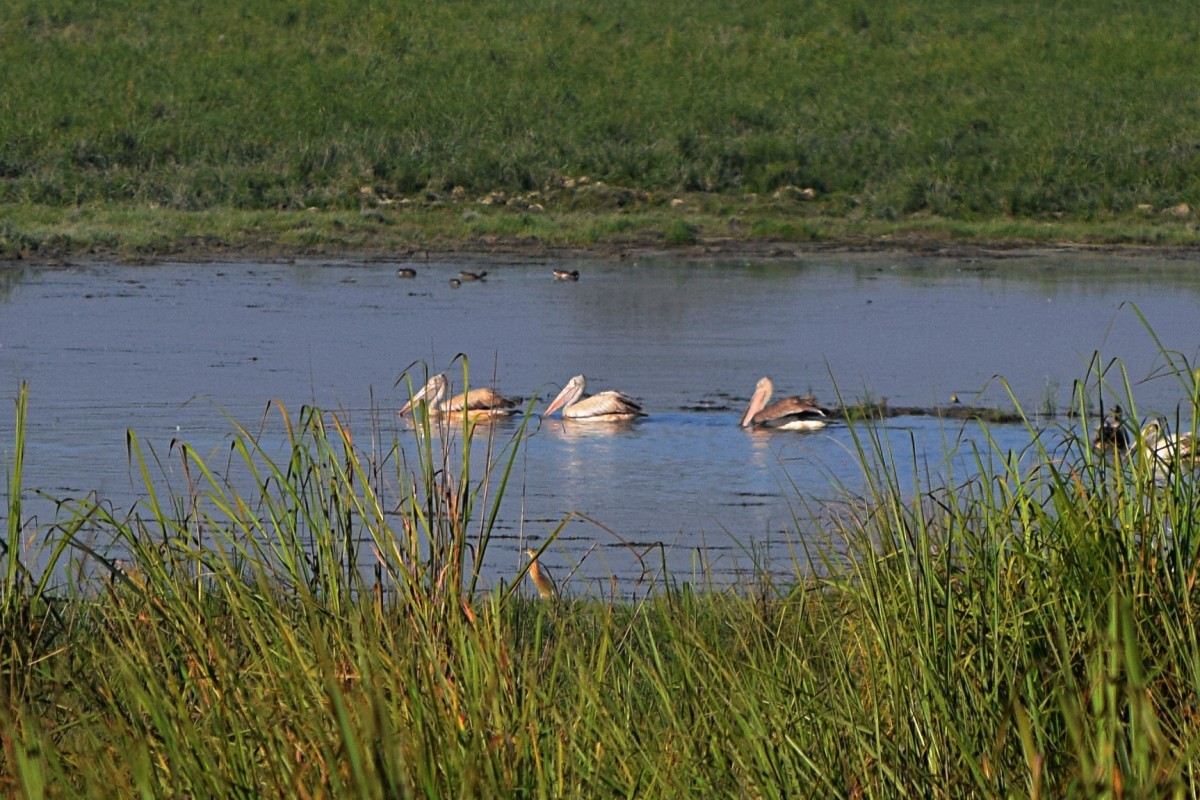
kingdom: Animalia
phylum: Chordata
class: Aves
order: Pelecaniformes
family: Pelecanidae
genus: Pelecanus
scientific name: Pelecanus philippensis
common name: Spot-billed pelican
